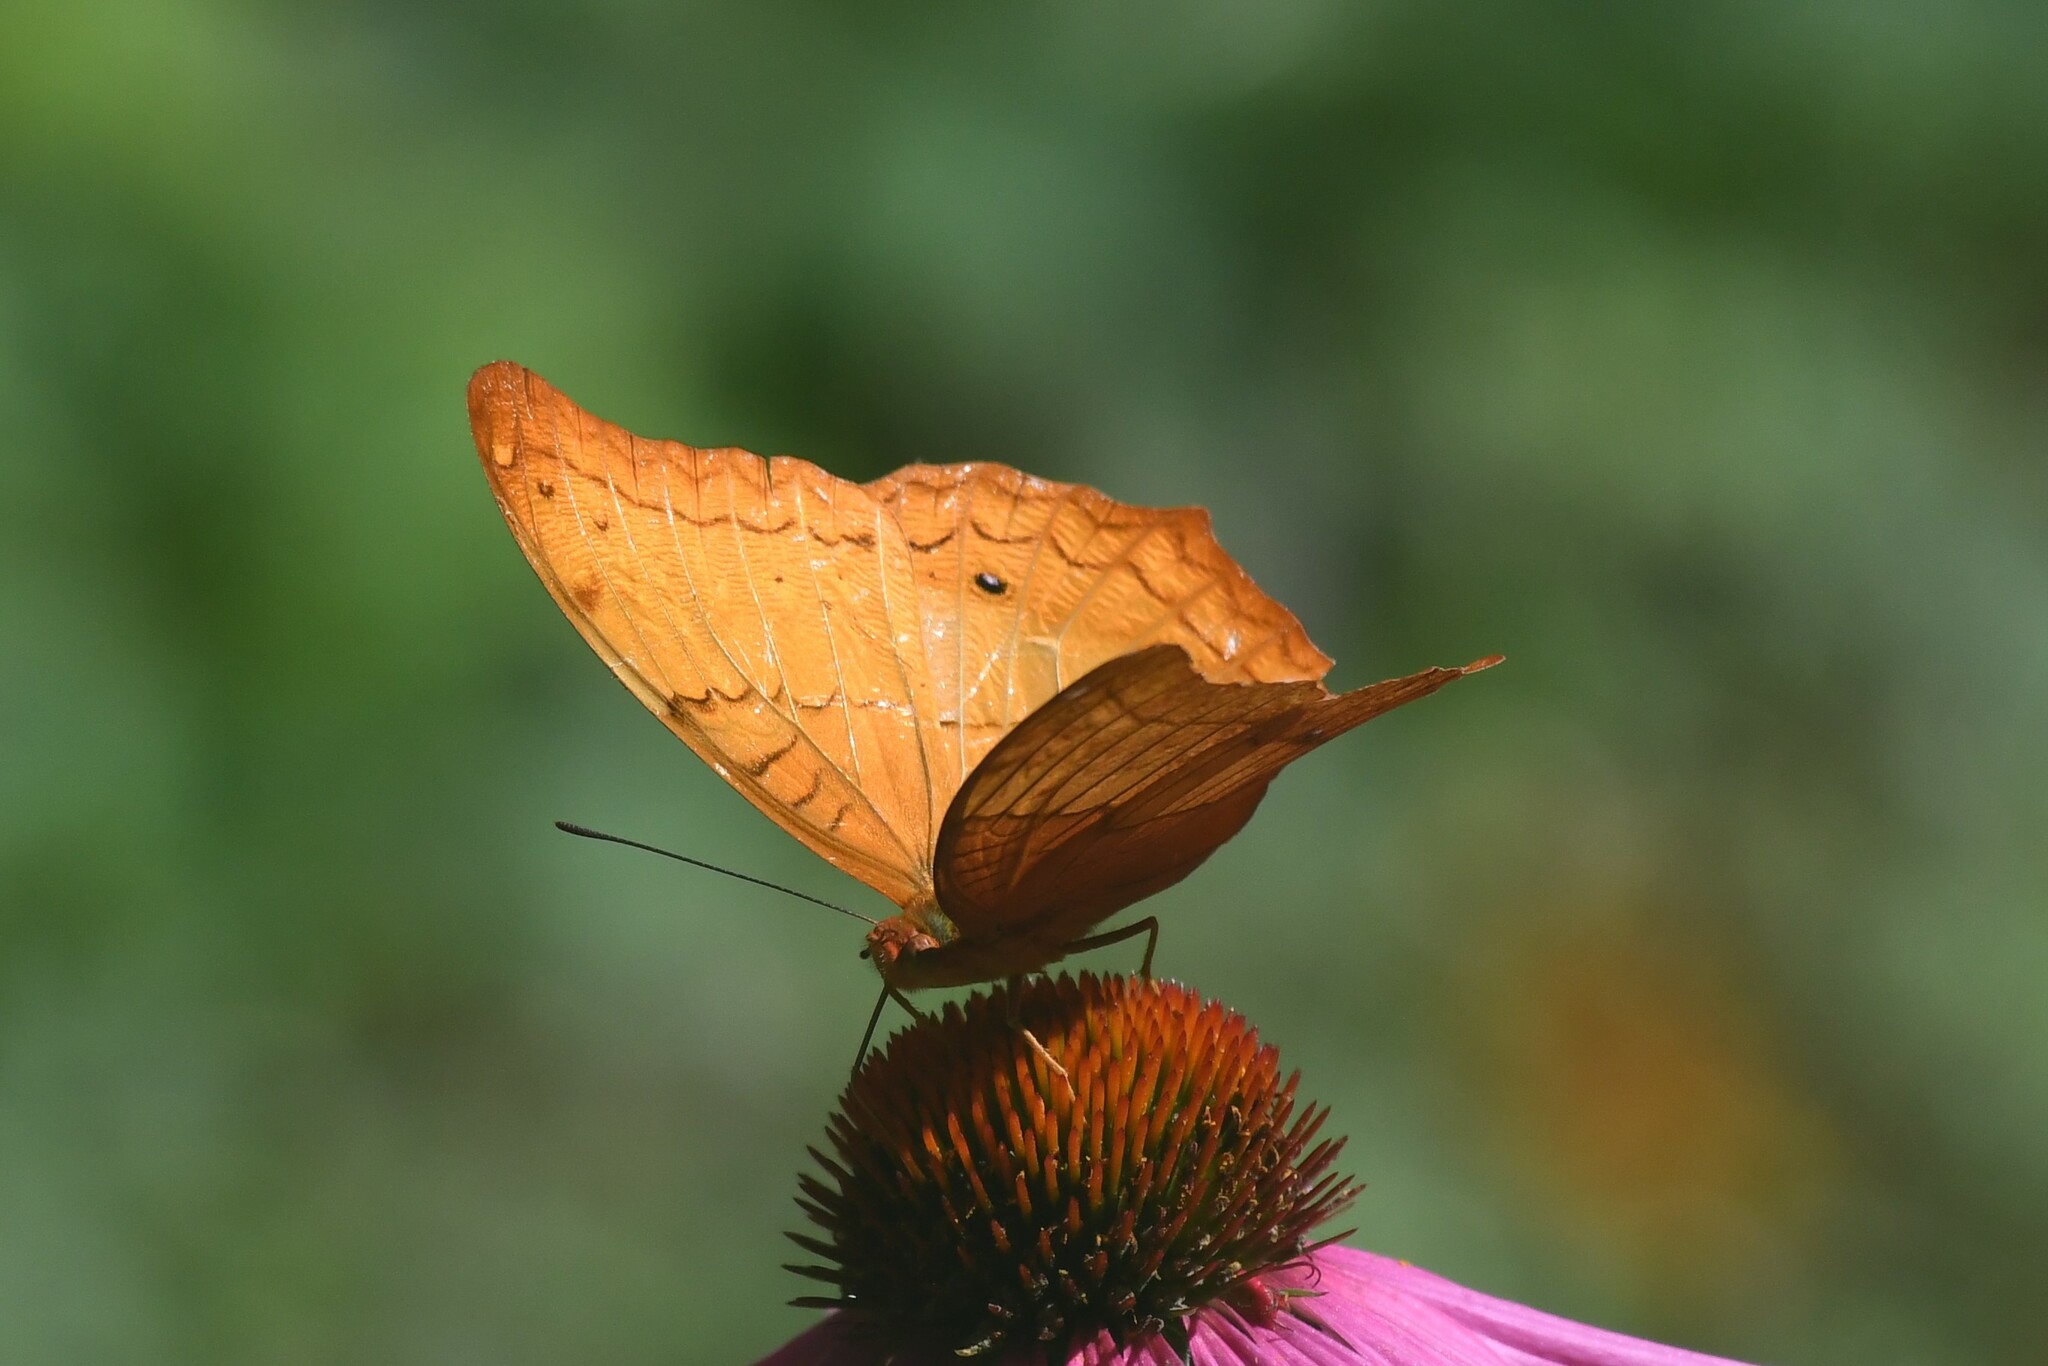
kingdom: Animalia
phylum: Arthropoda
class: Insecta
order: Lepidoptera
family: Nymphalidae
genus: Vindula
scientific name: Vindula erota
